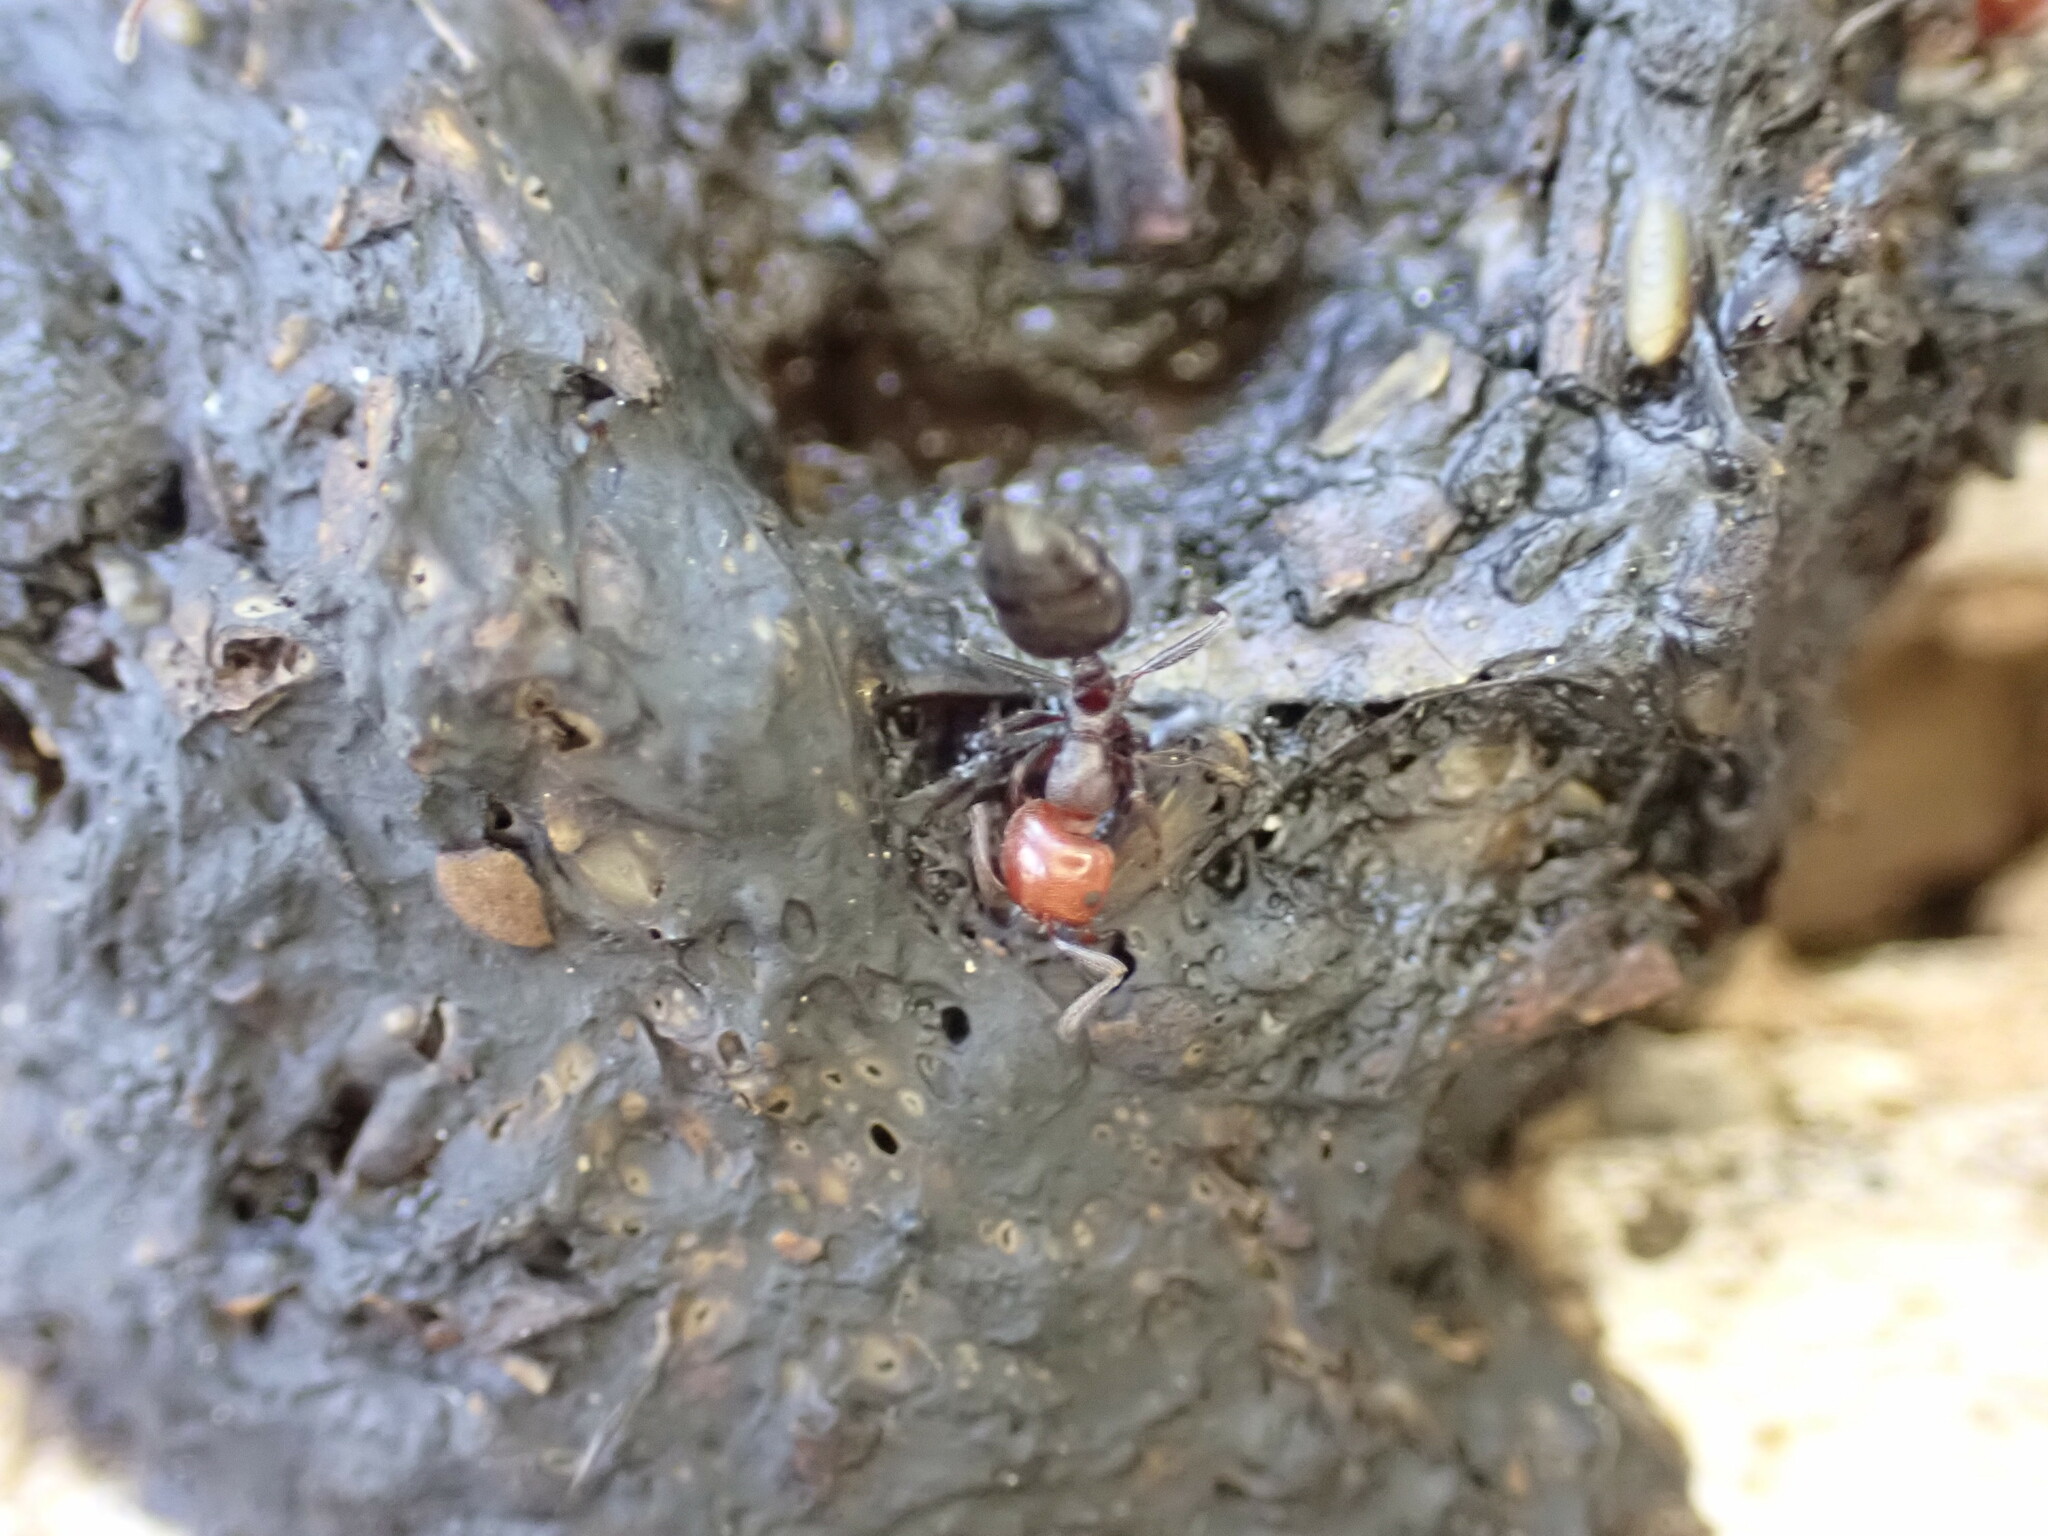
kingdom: Animalia
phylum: Arthropoda
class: Insecta
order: Hymenoptera
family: Formicidae
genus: Crematogaster
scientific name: Crematogaster scutellaris
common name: Fourmi du liège
